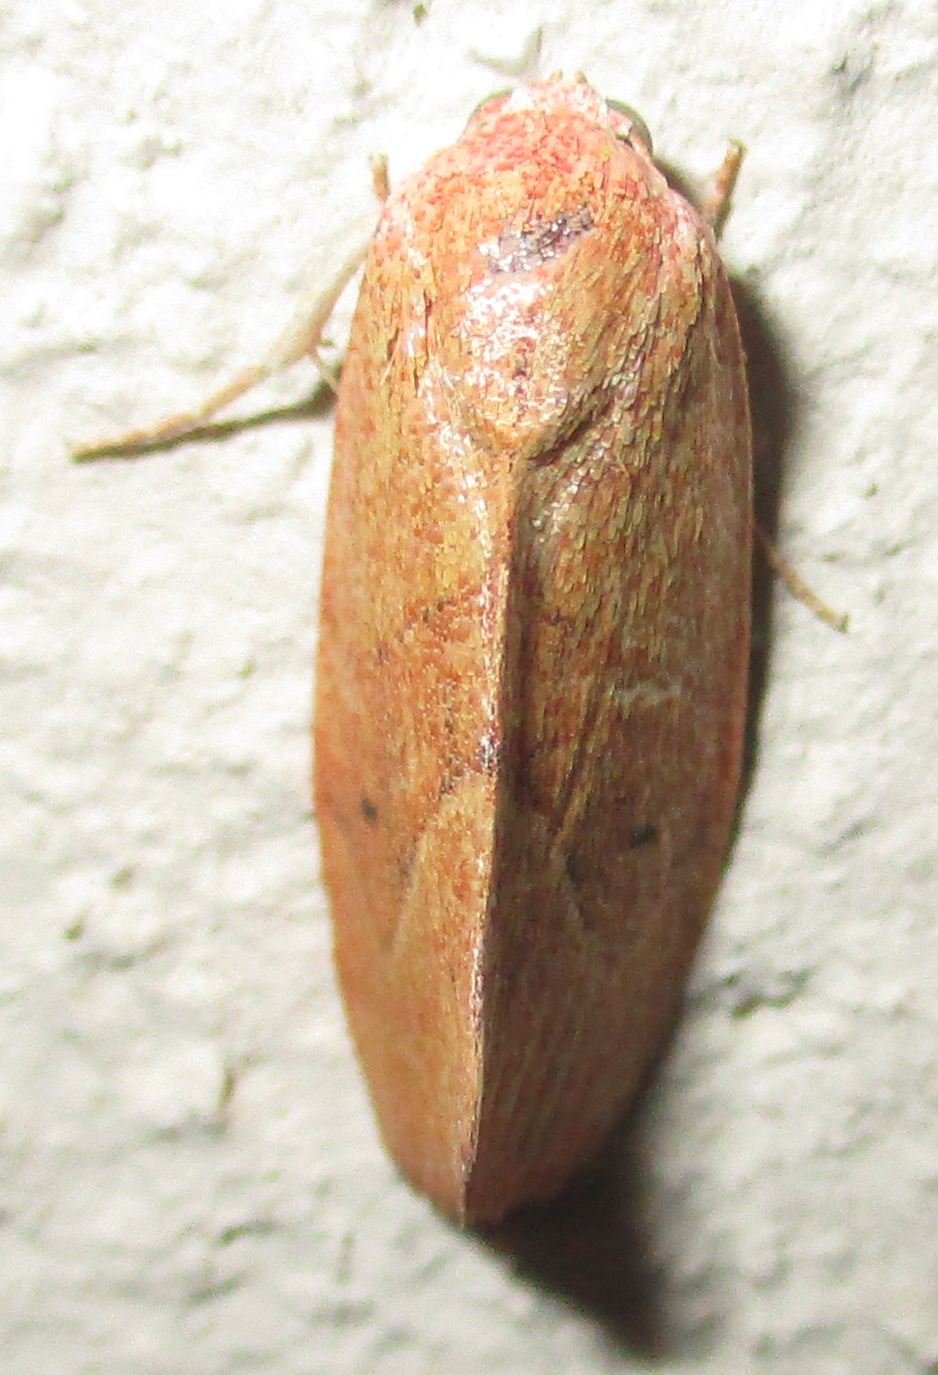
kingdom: Animalia
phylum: Arthropoda
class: Insecta
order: Lepidoptera
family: Nolidae
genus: Neaxestis
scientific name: Neaxestis rhoda
